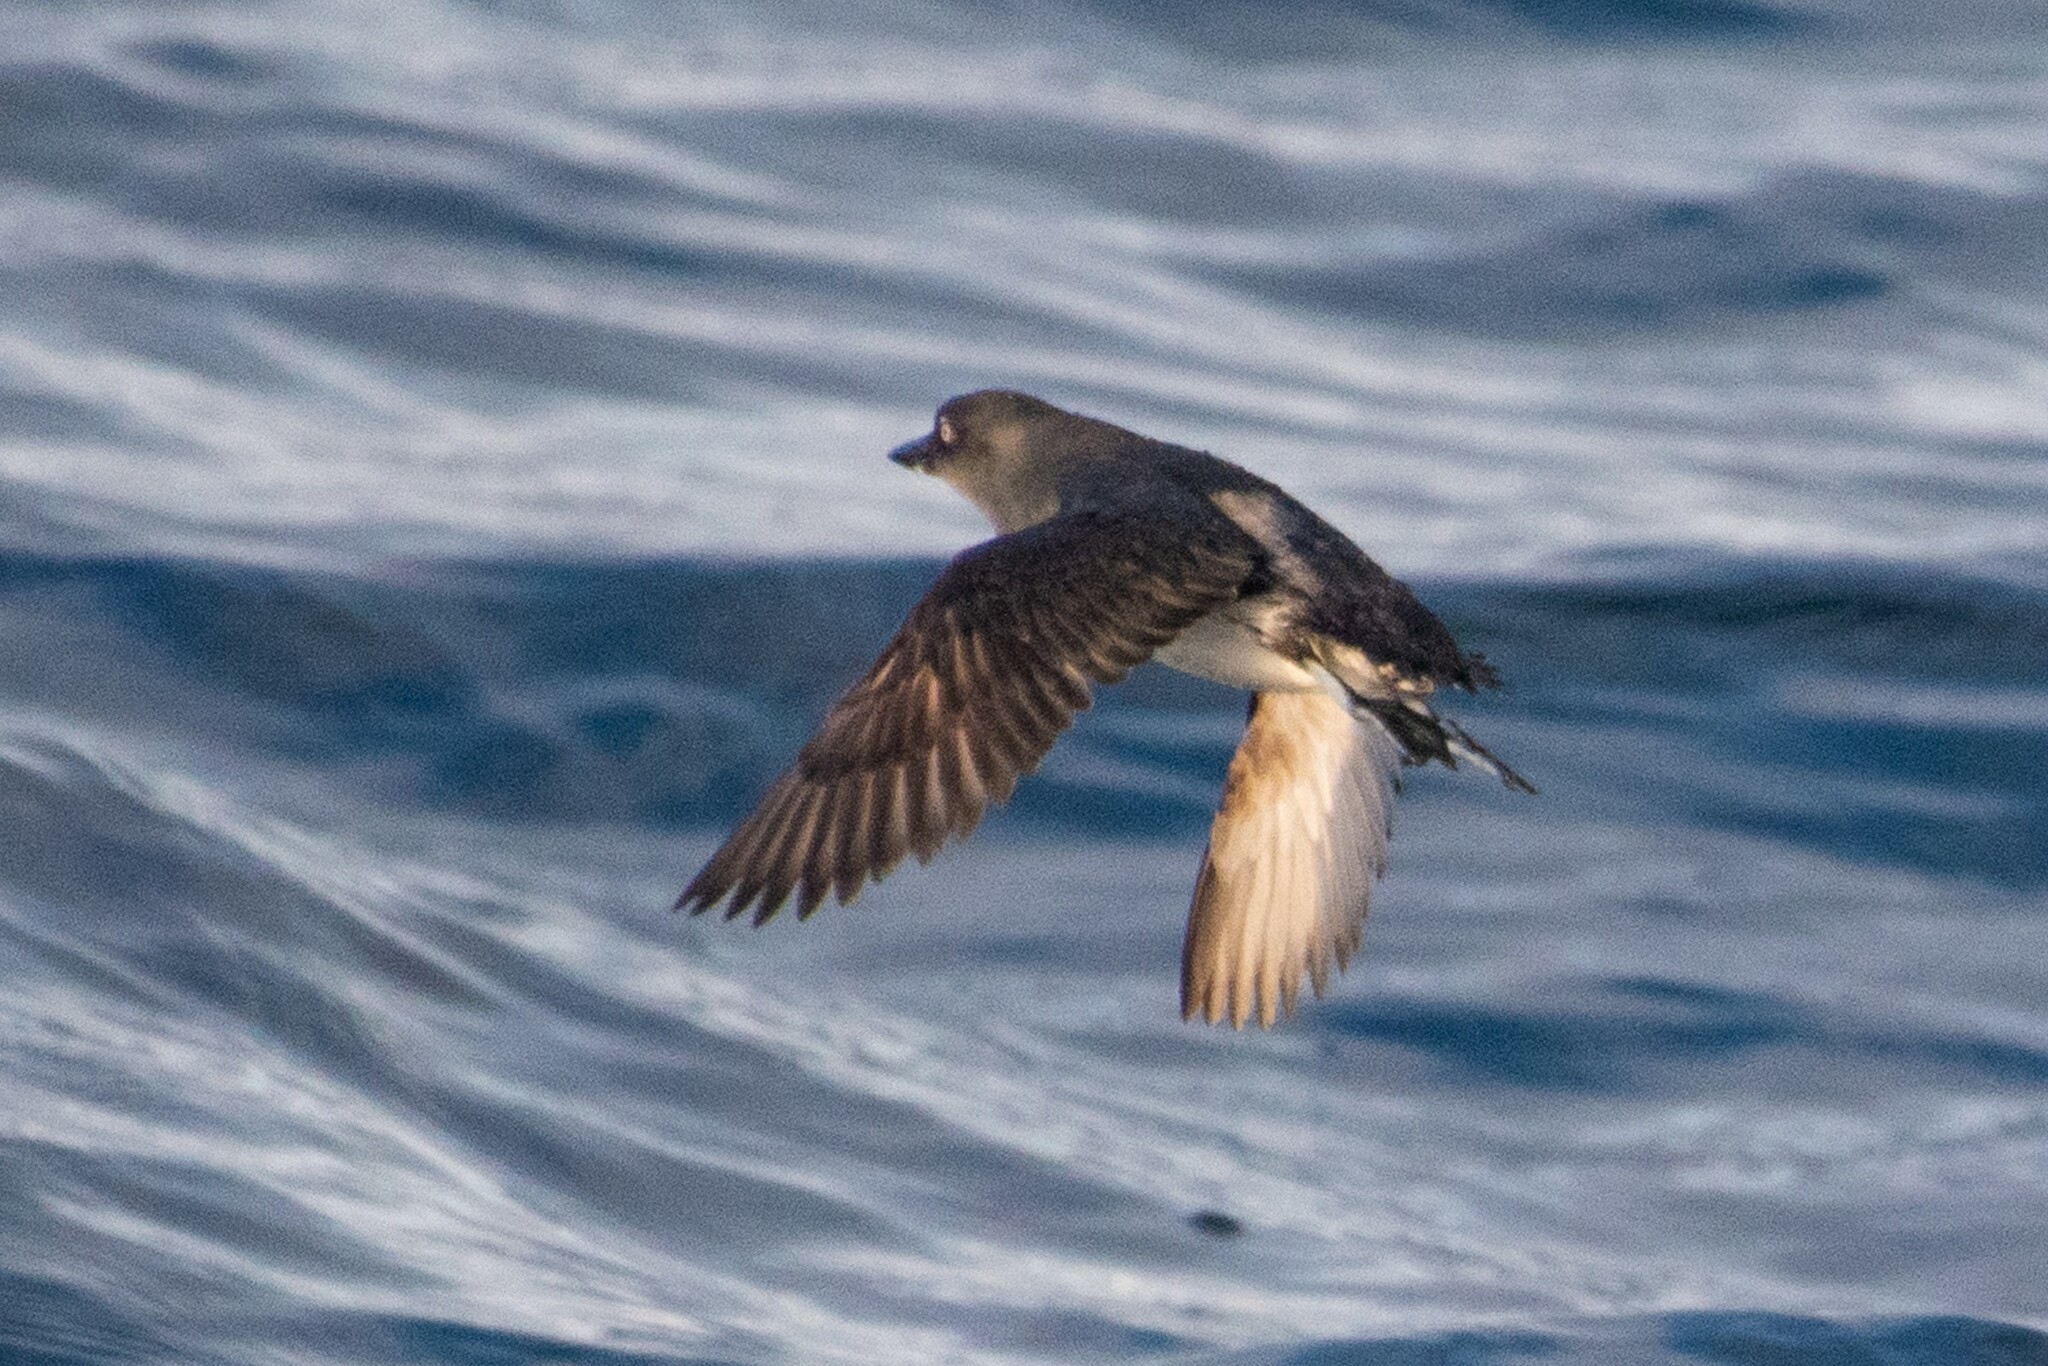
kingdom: Animalia
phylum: Chordata
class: Aves
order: Charadriiformes
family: Alcidae
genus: Ptychoramphus
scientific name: Ptychoramphus aleuticus
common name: Cassin's auklet
